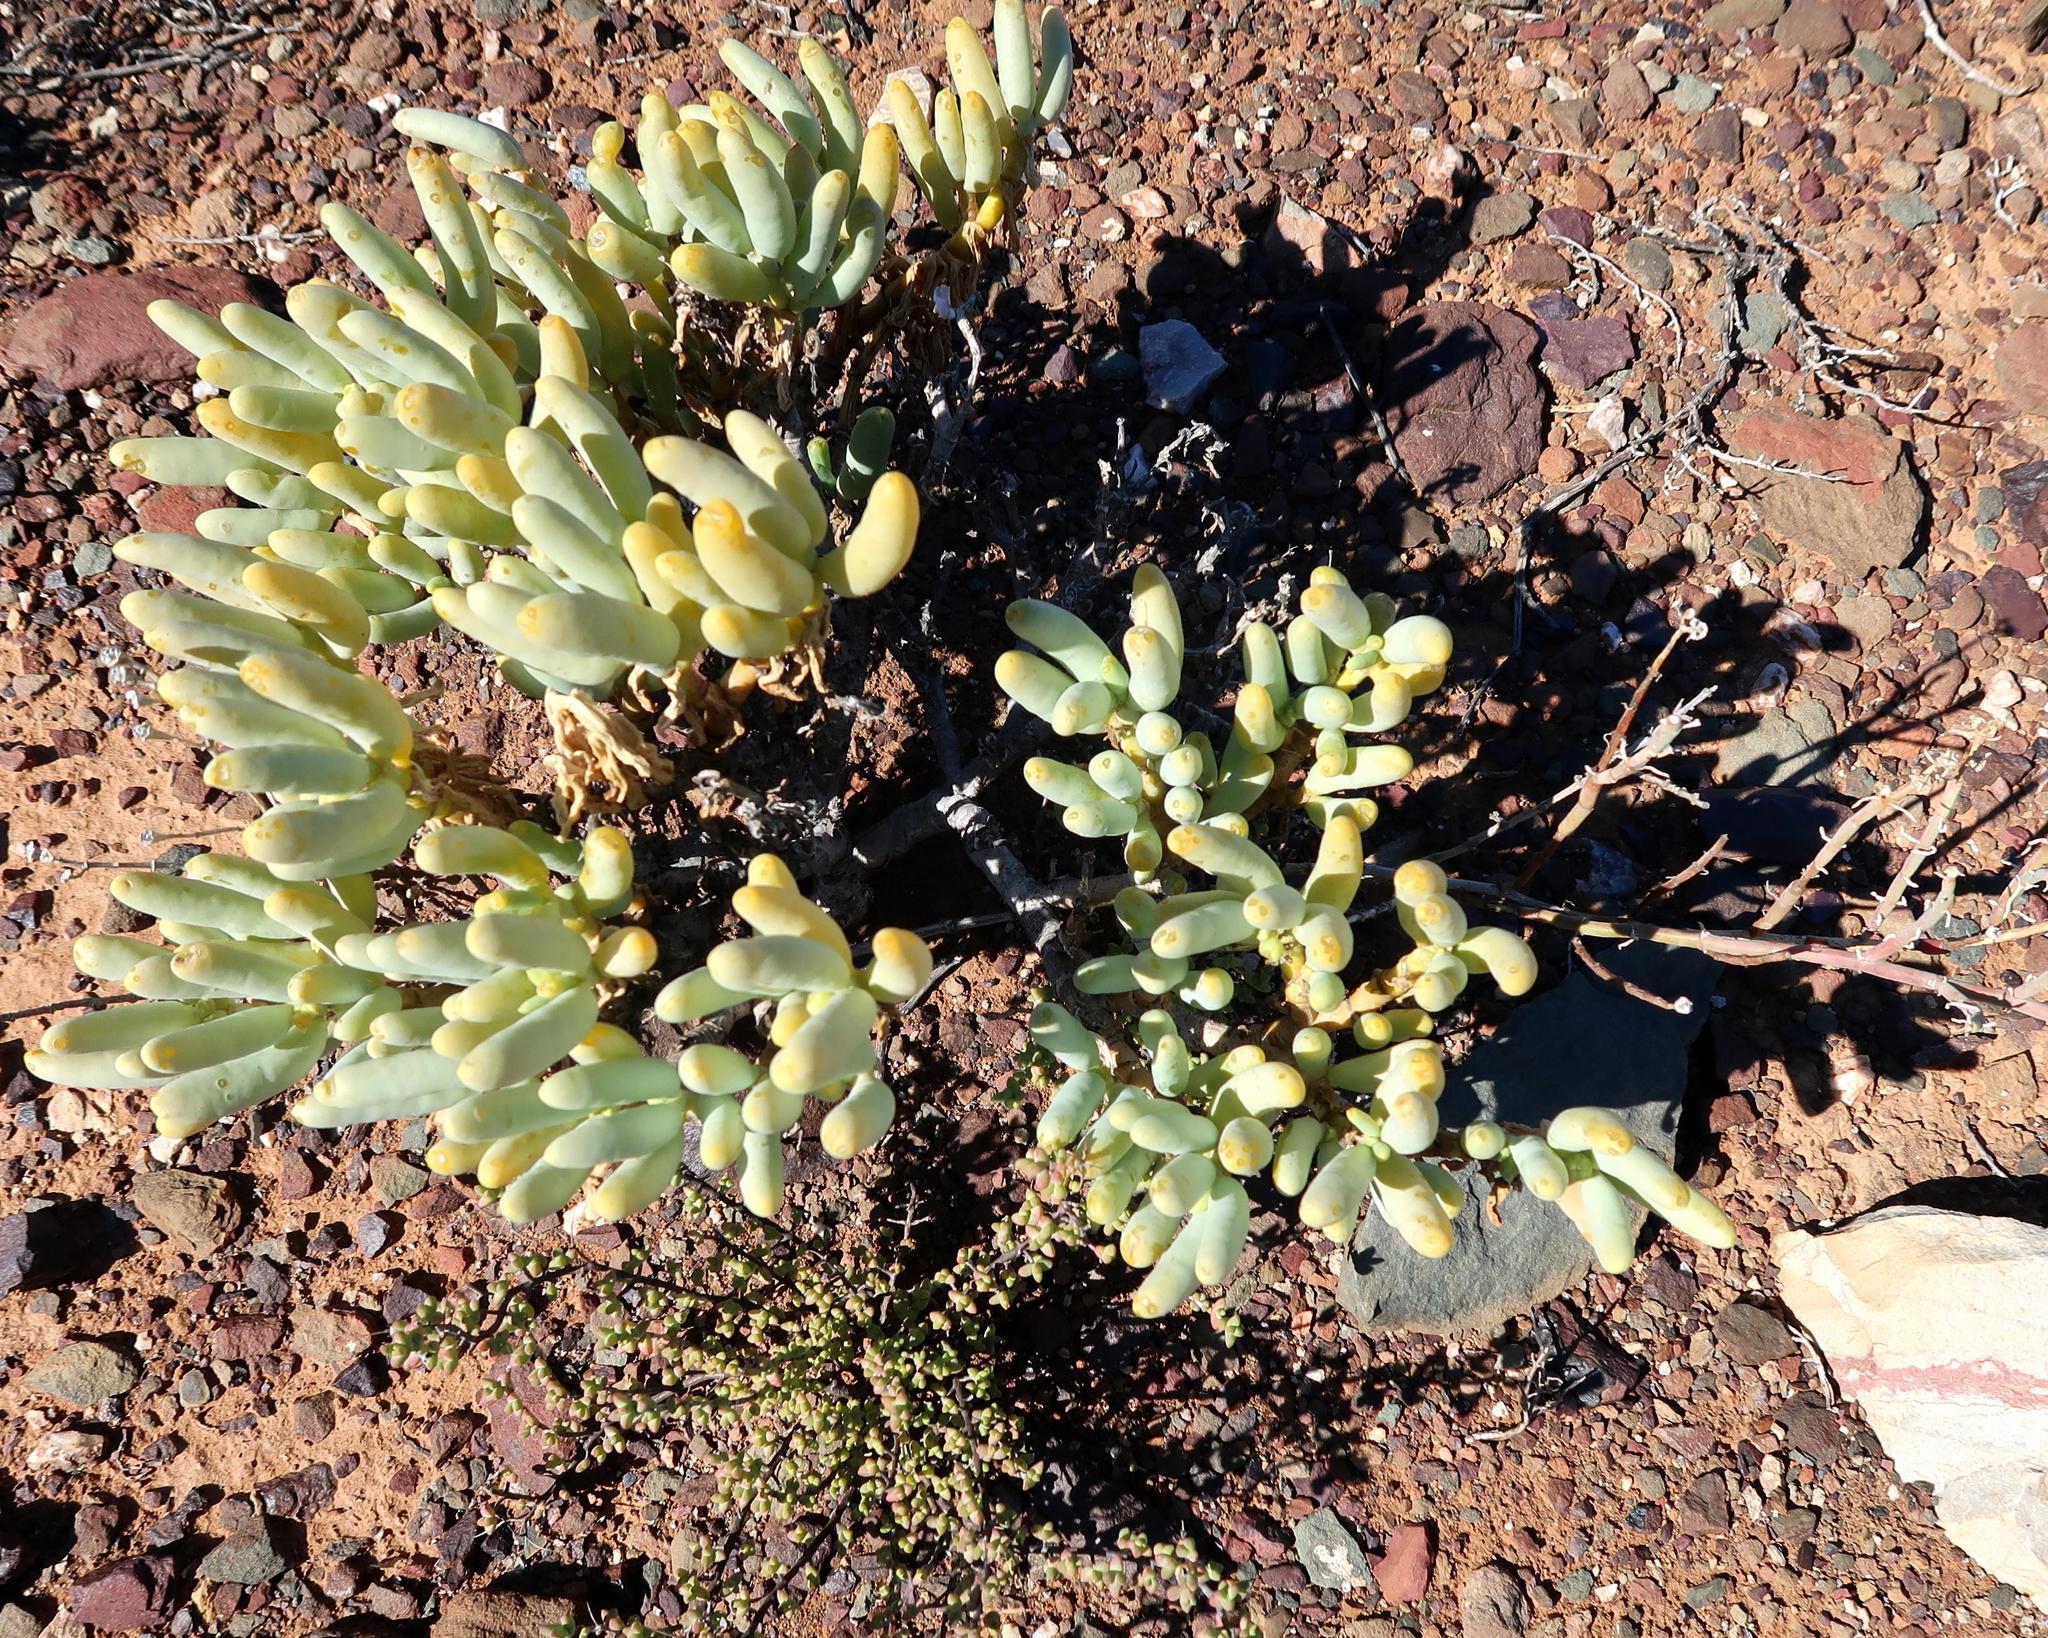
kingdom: Plantae
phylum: Tracheophyta
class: Magnoliopsida
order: Zygophyllales
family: Zygophyllaceae
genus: Augea
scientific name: Augea capensis
